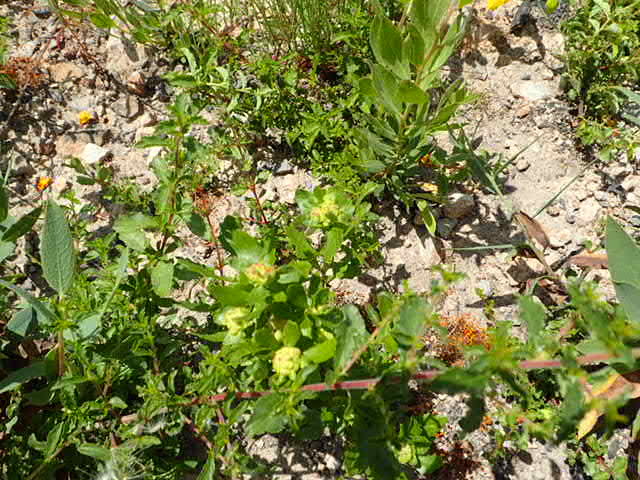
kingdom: Animalia
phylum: Arthropoda
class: Insecta
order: Diptera
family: Cecidomyiidae
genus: Rhopalomyia
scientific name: Rhopalomyia californica
